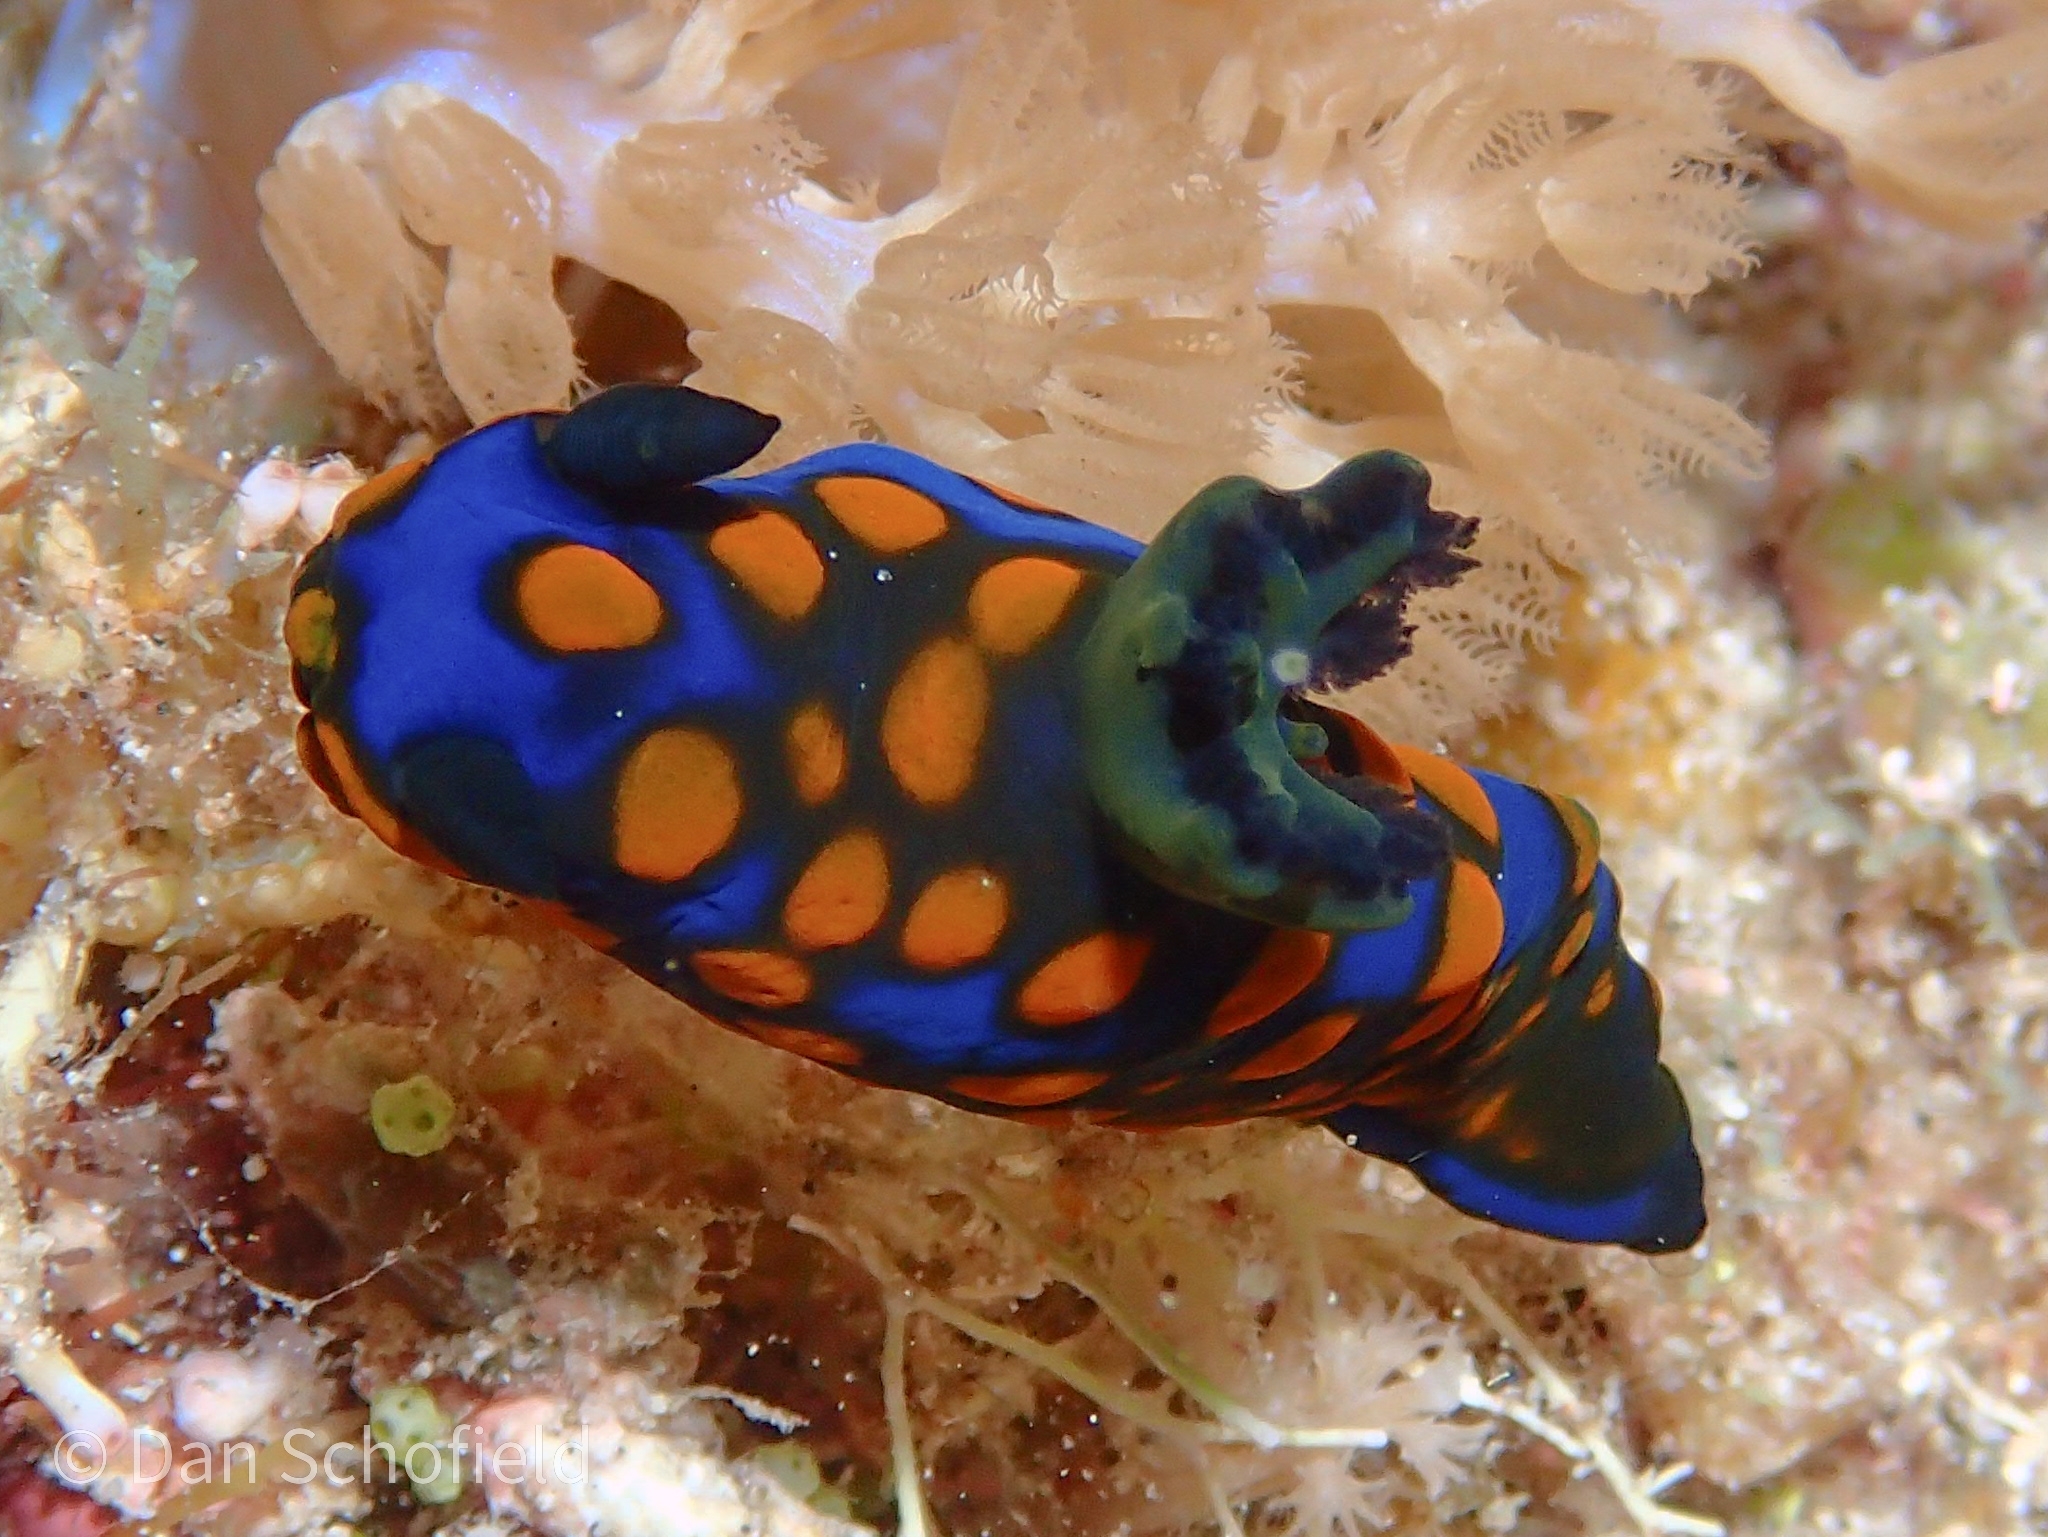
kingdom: Animalia
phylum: Mollusca
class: Gastropoda
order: Nudibranchia
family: Polyceridae
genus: Tambja
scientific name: Tambja sagamiana
